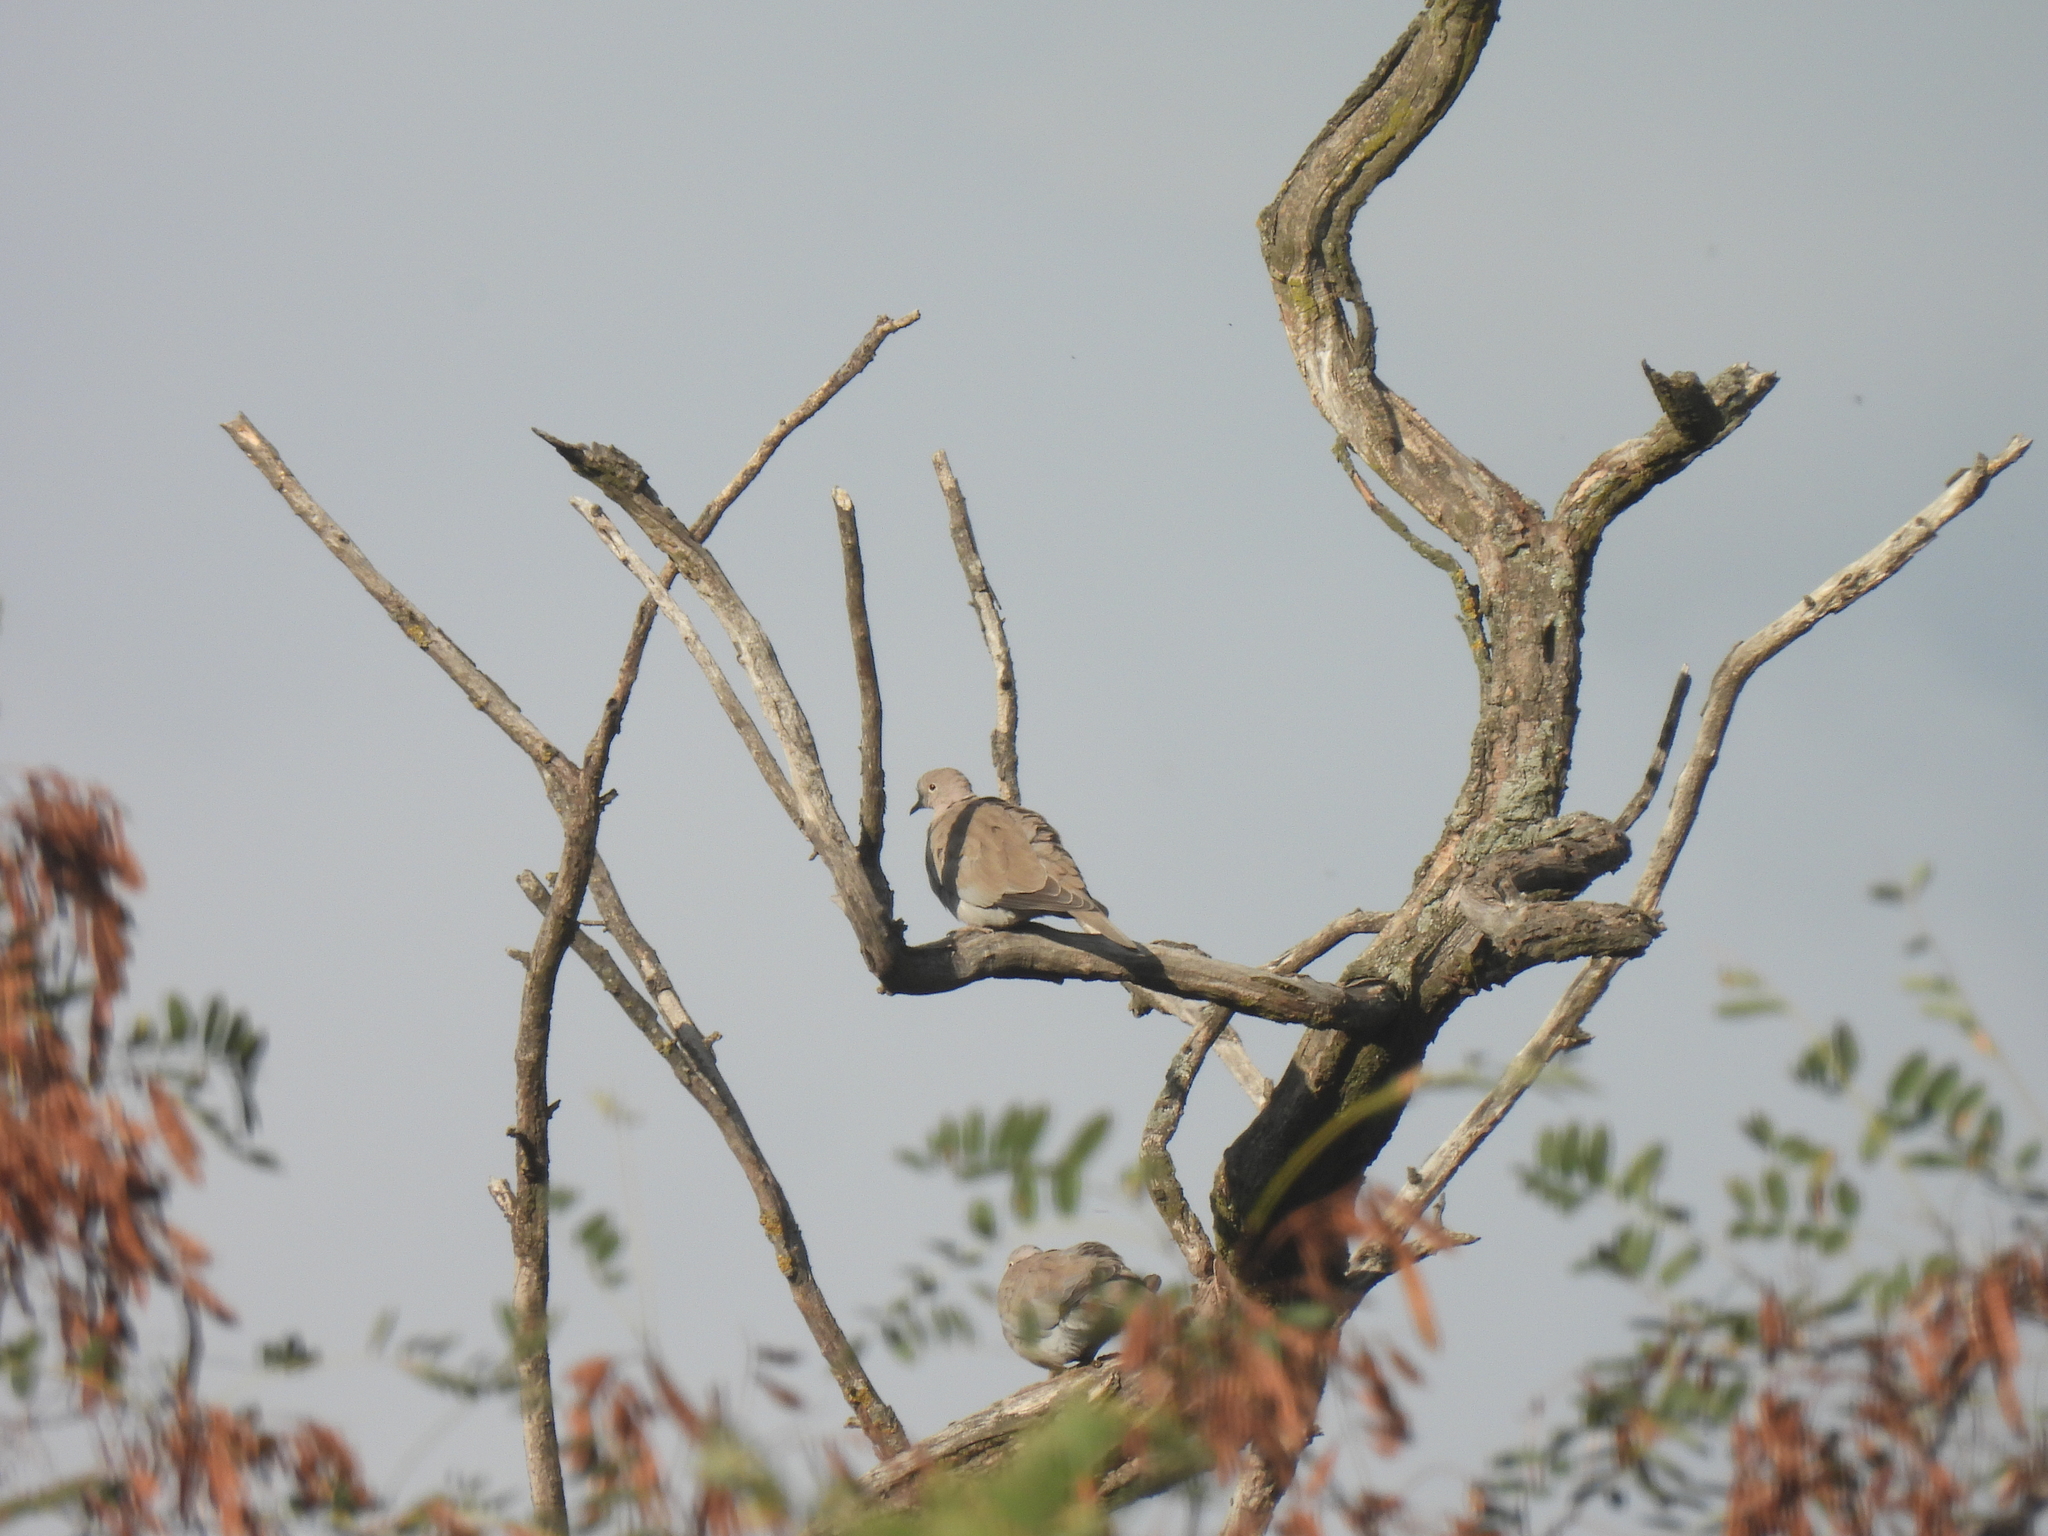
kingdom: Animalia
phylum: Chordata
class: Aves
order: Columbiformes
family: Columbidae
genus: Streptopelia
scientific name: Streptopelia decaocto
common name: Eurasian collared dove
